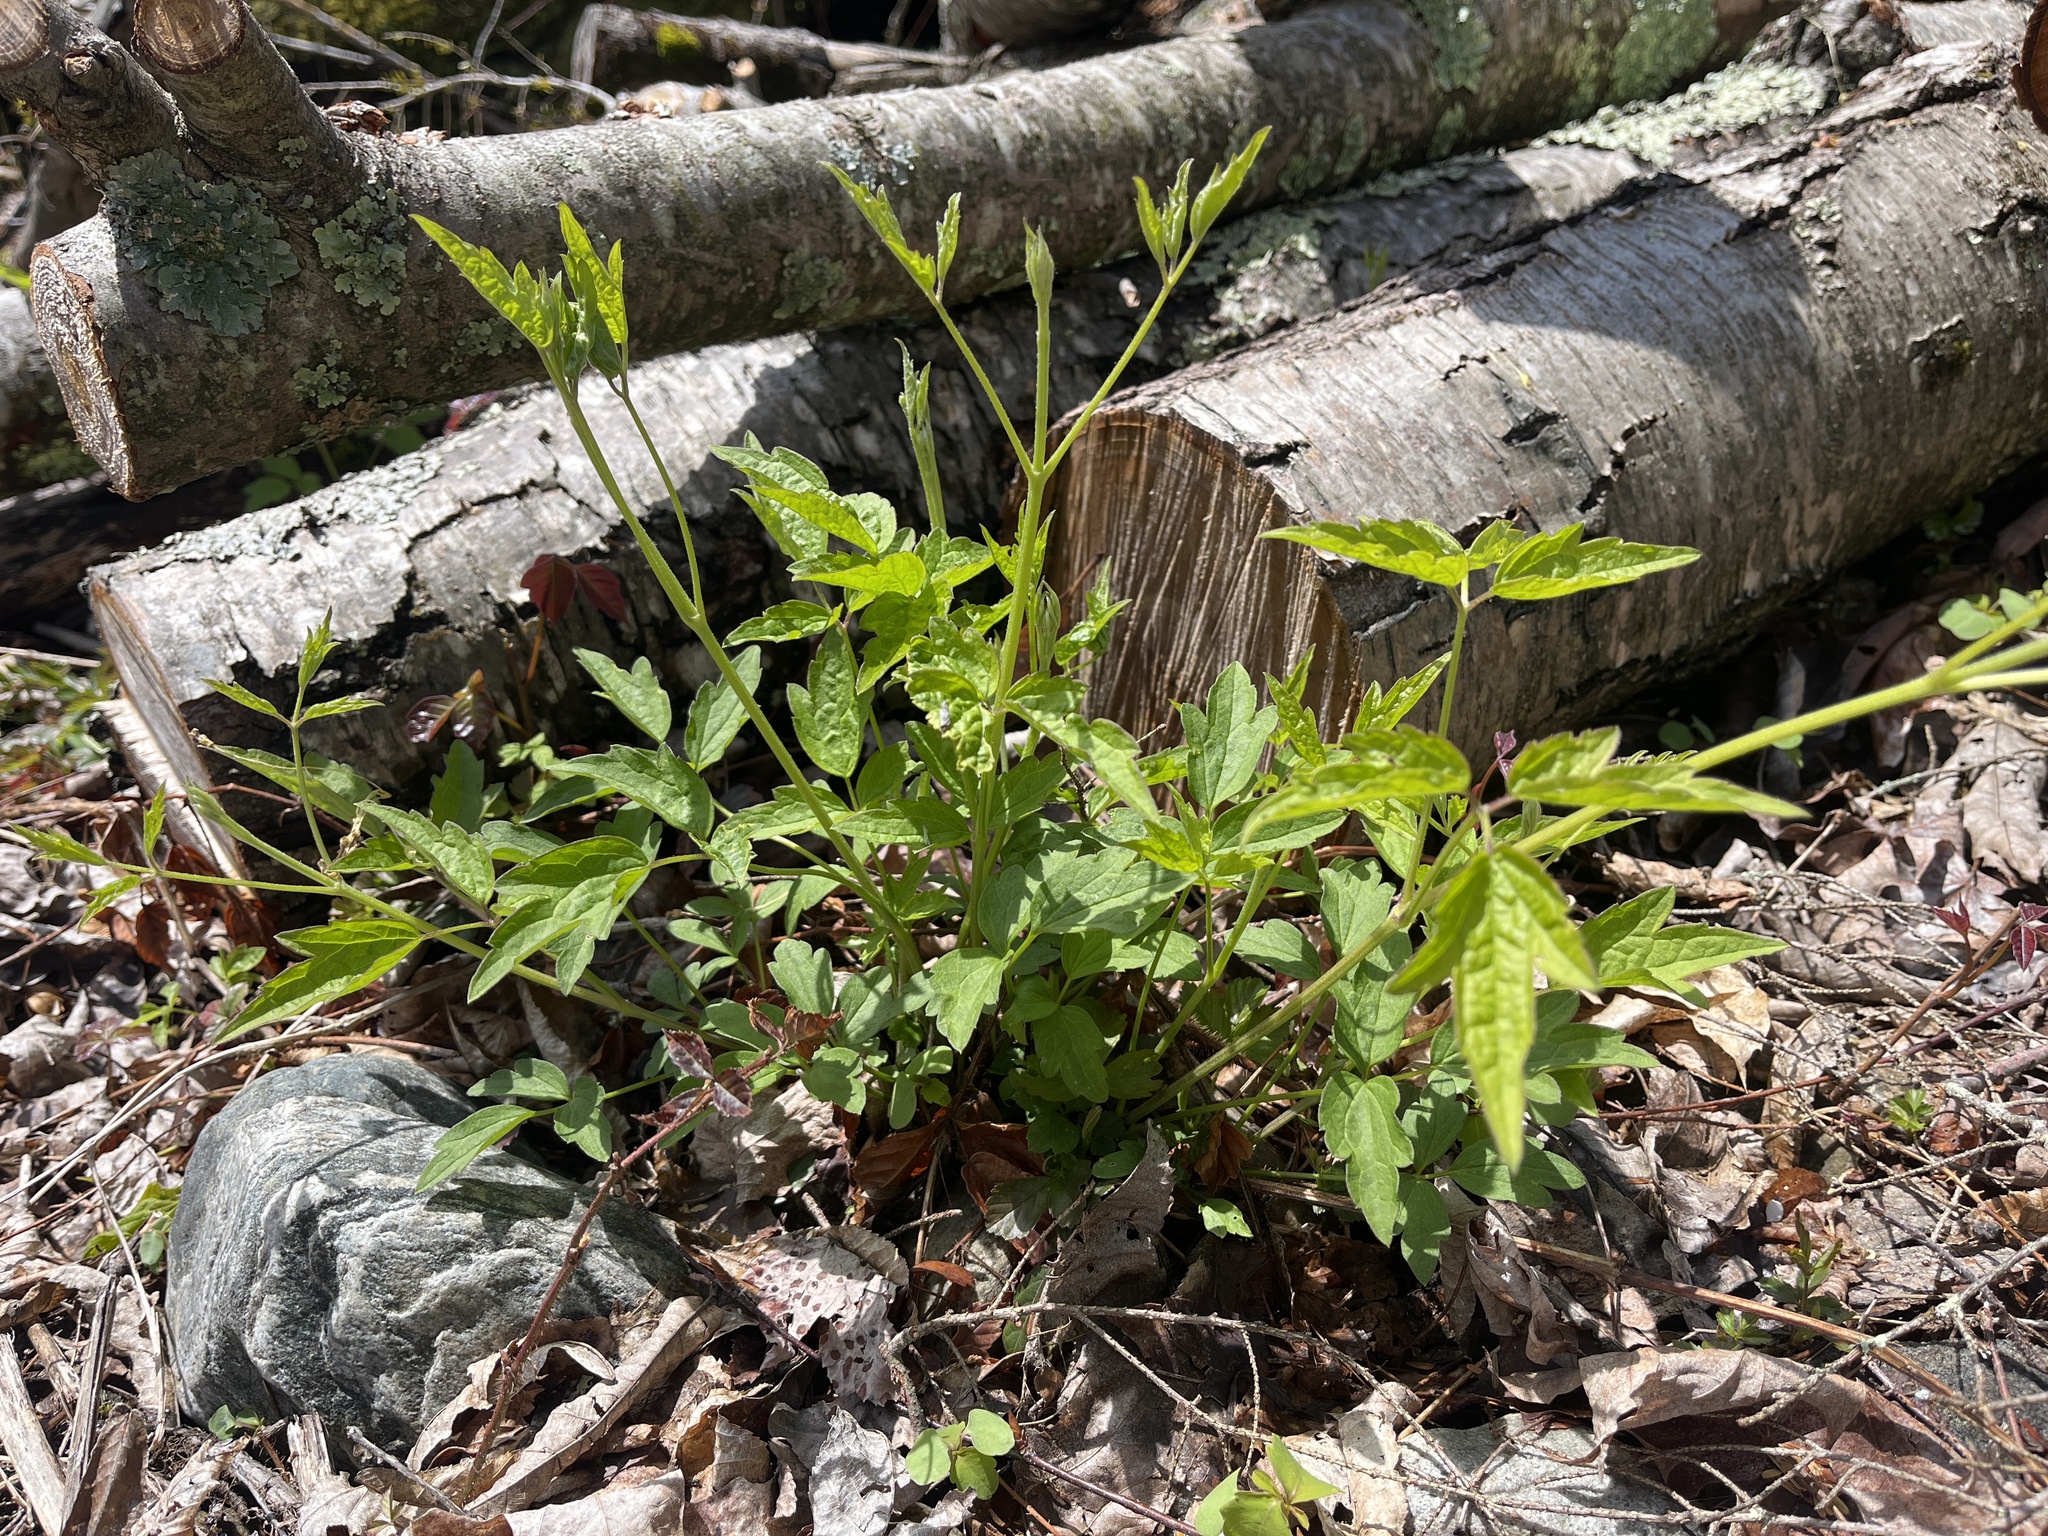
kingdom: Plantae
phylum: Tracheophyta
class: Magnoliopsida
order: Ranunculales
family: Ranunculaceae
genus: Clematis
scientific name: Clematis virginiana
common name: Virgin's-bower
